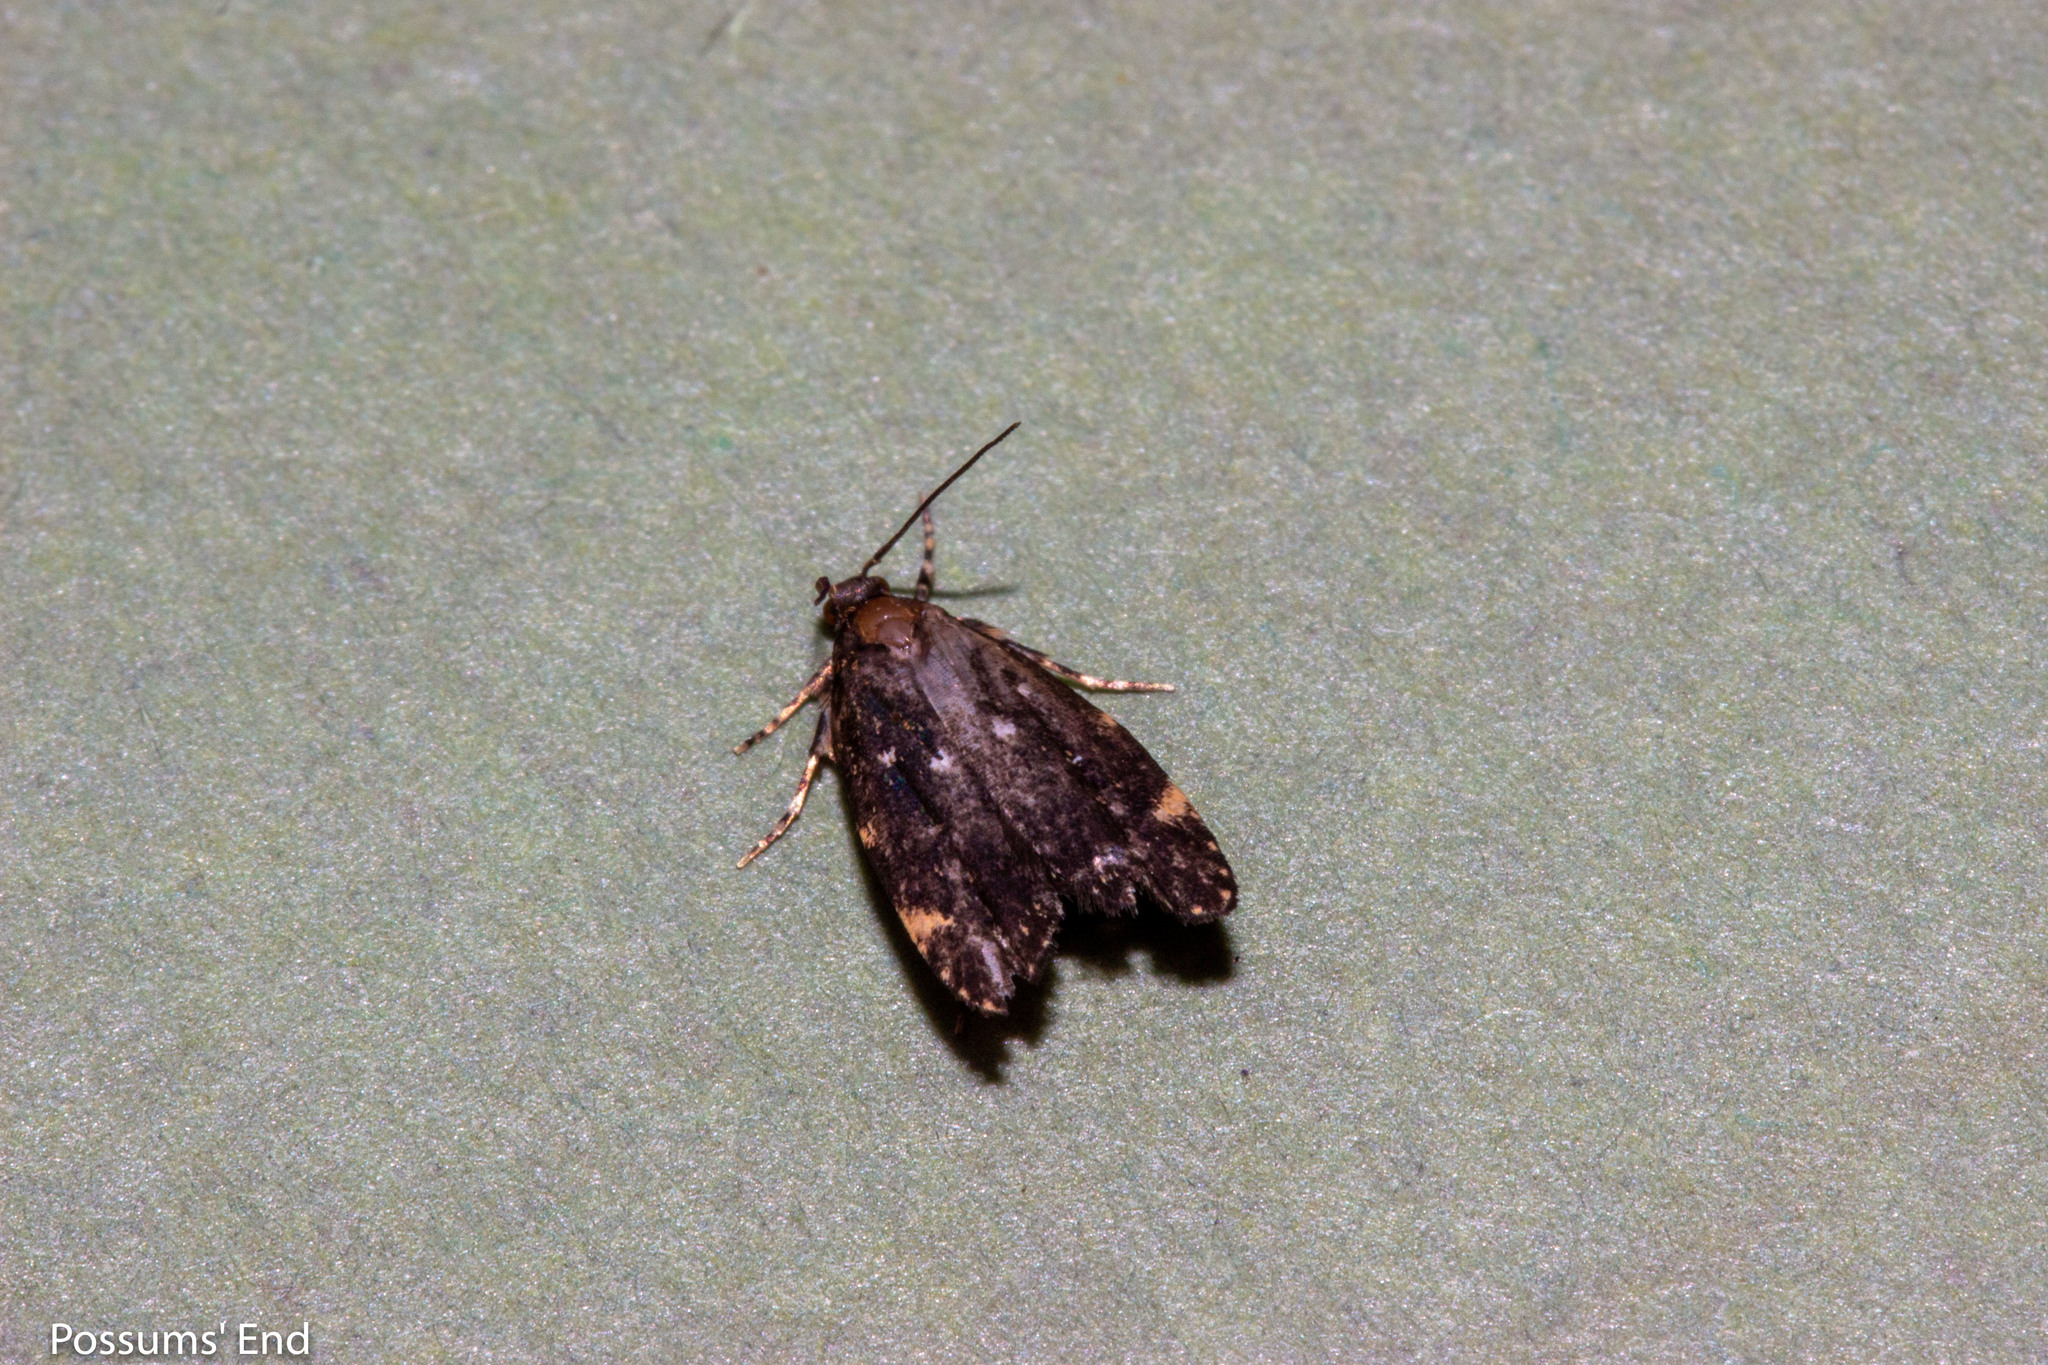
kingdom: Animalia
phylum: Arthropoda
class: Insecta
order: Lepidoptera
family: Oecophoridae
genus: Lathicrossa
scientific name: Lathicrossa leucocentra
